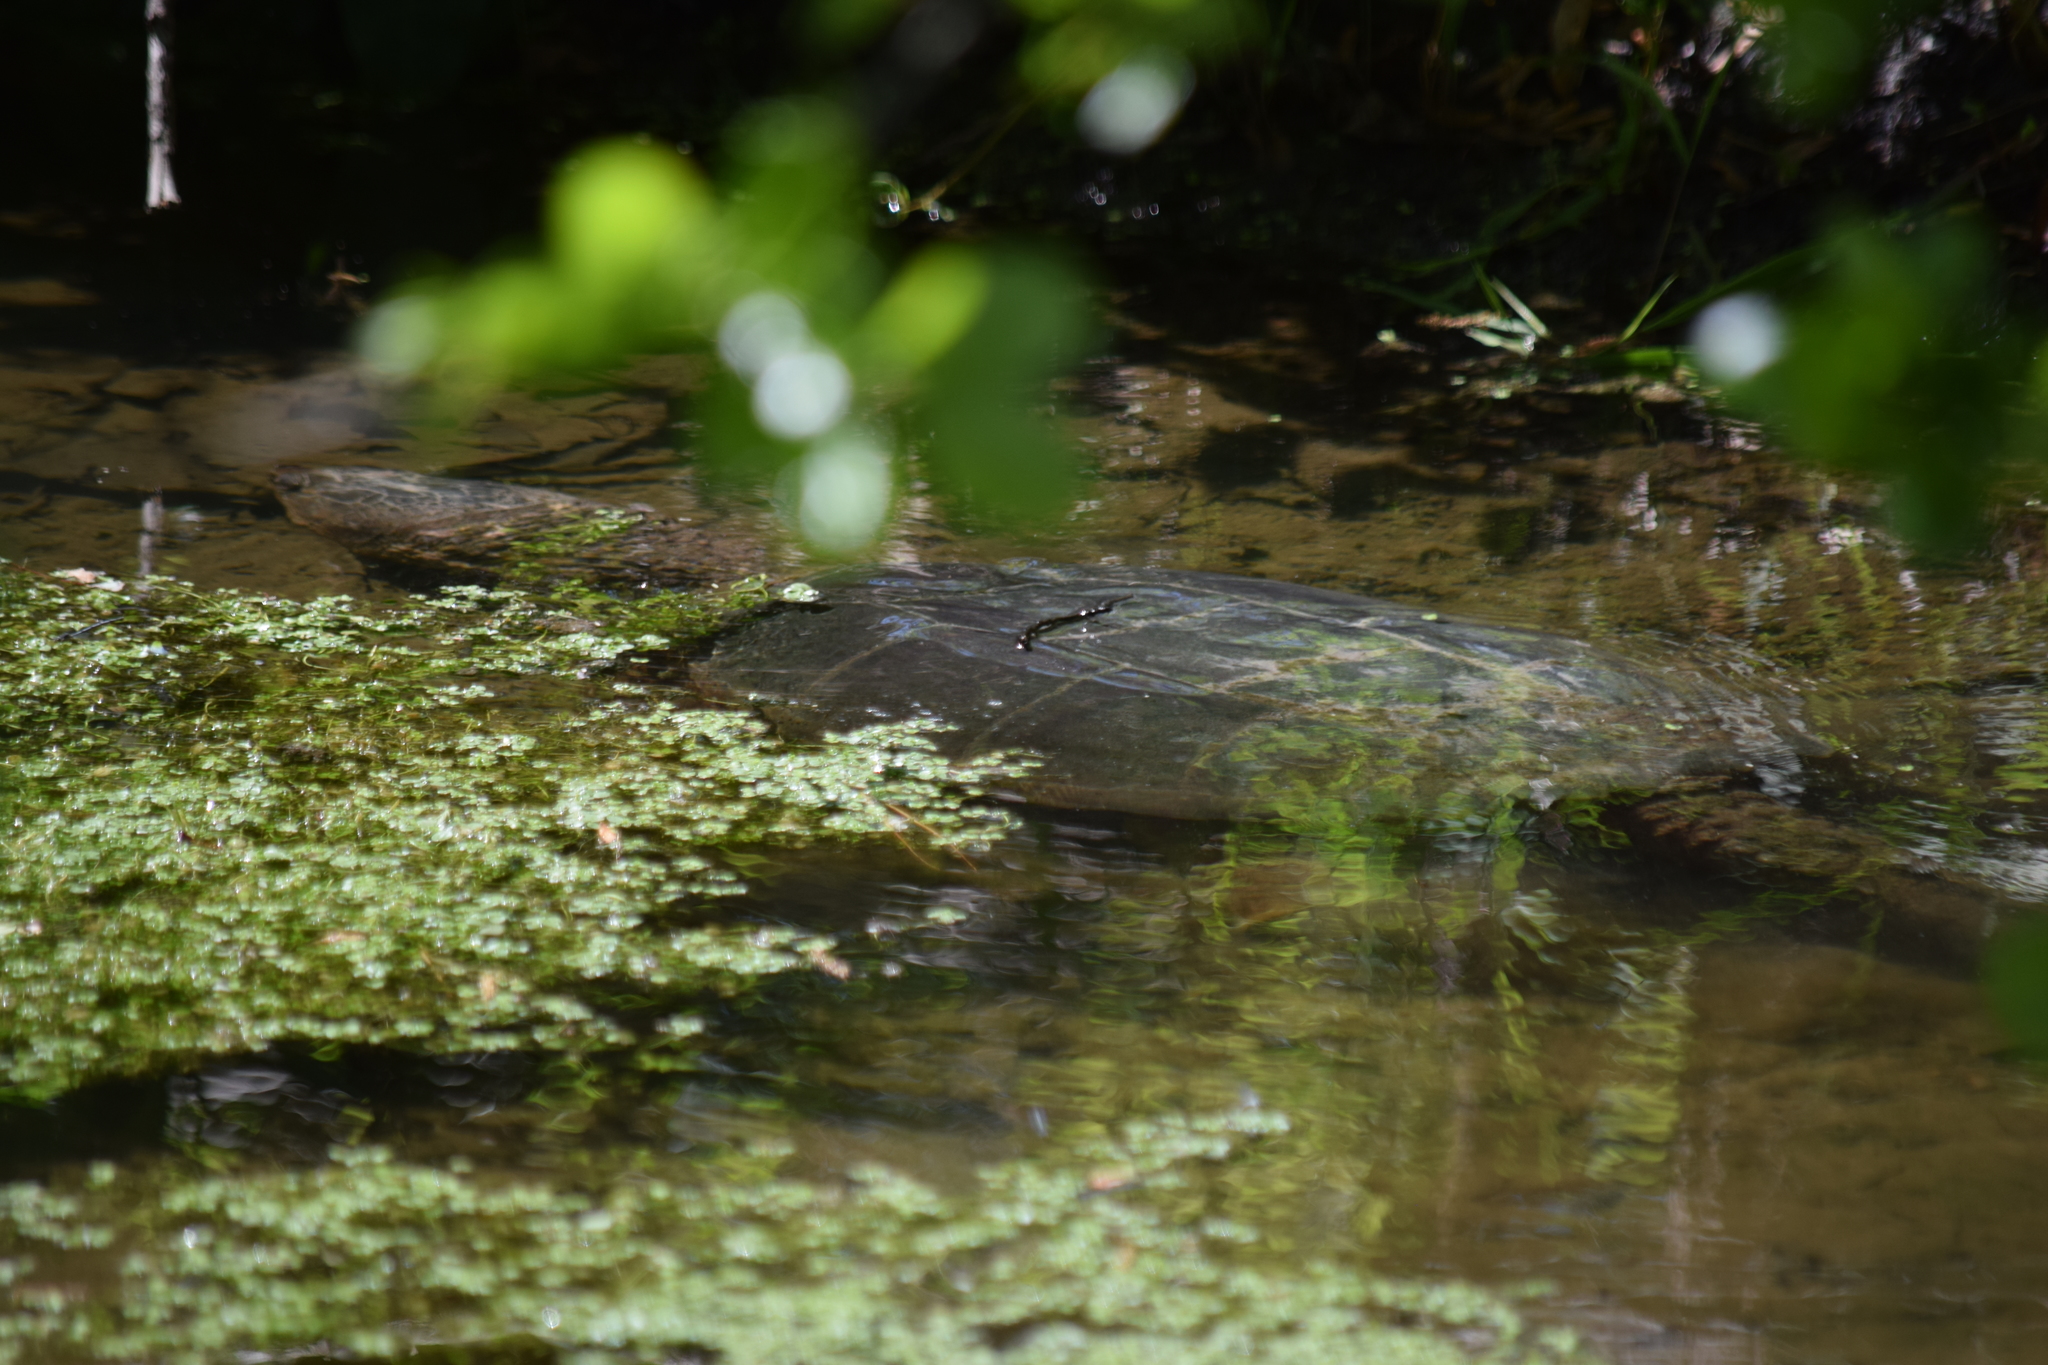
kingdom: Animalia
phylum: Chordata
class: Testudines
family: Chelydridae
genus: Chelydra
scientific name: Chelydra serpentina
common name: Common snapping turtle
